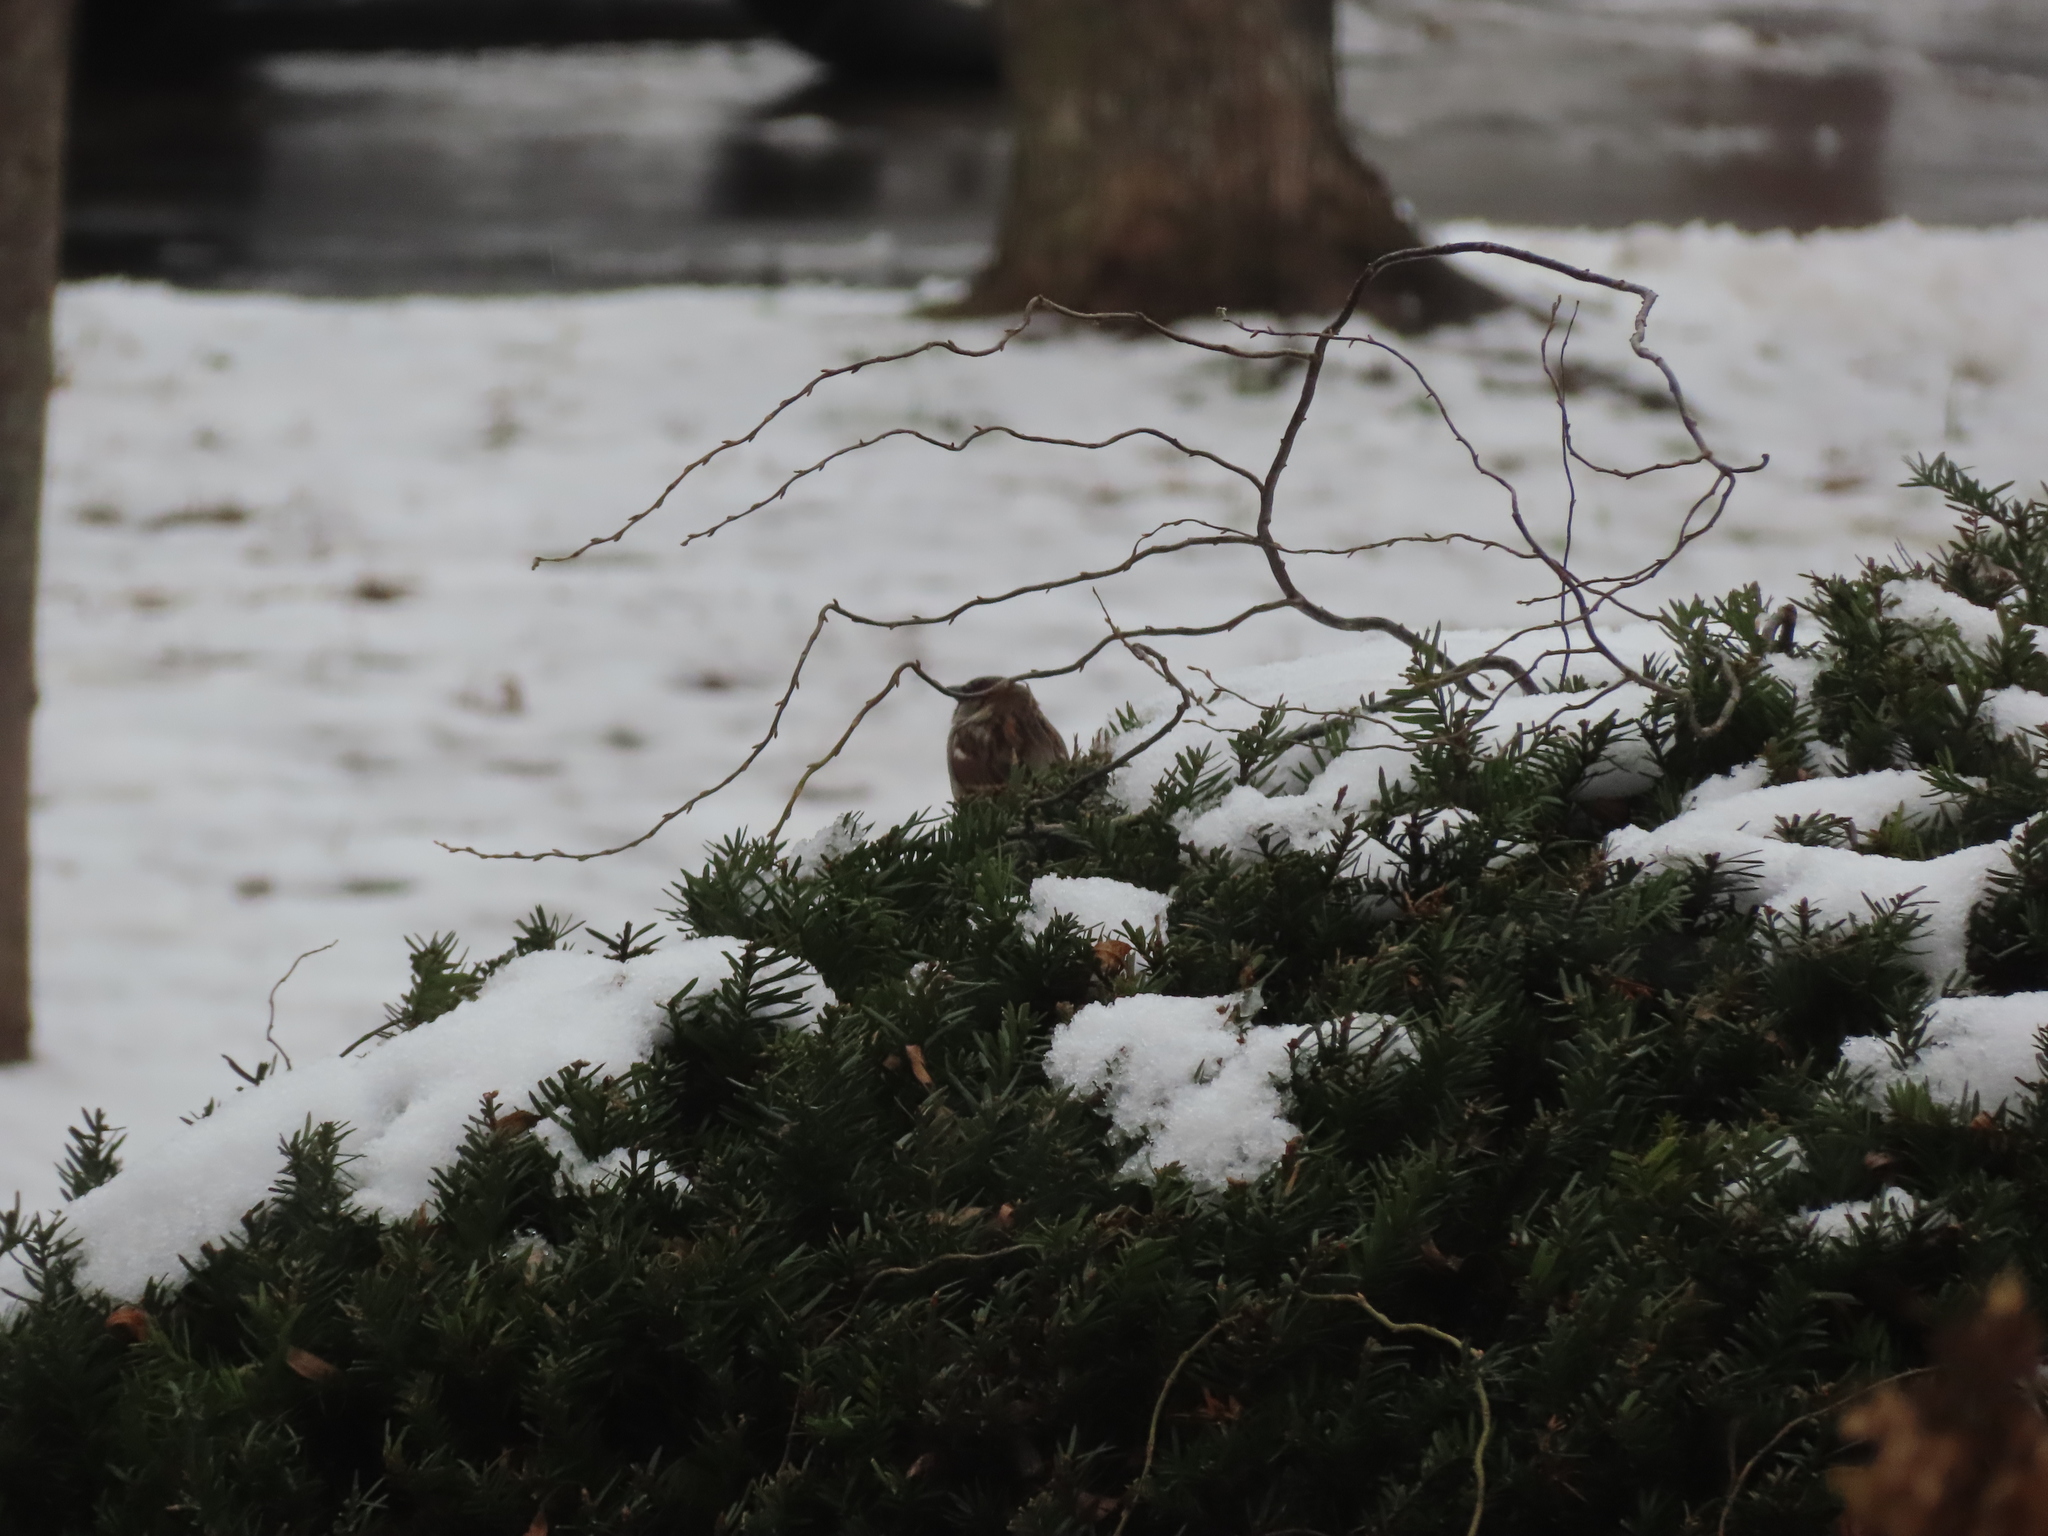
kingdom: Animalia
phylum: Chordata
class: Aves
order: Passeriformes
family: Passeridae
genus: Passer
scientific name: Passer domesticus
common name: House sparrow
